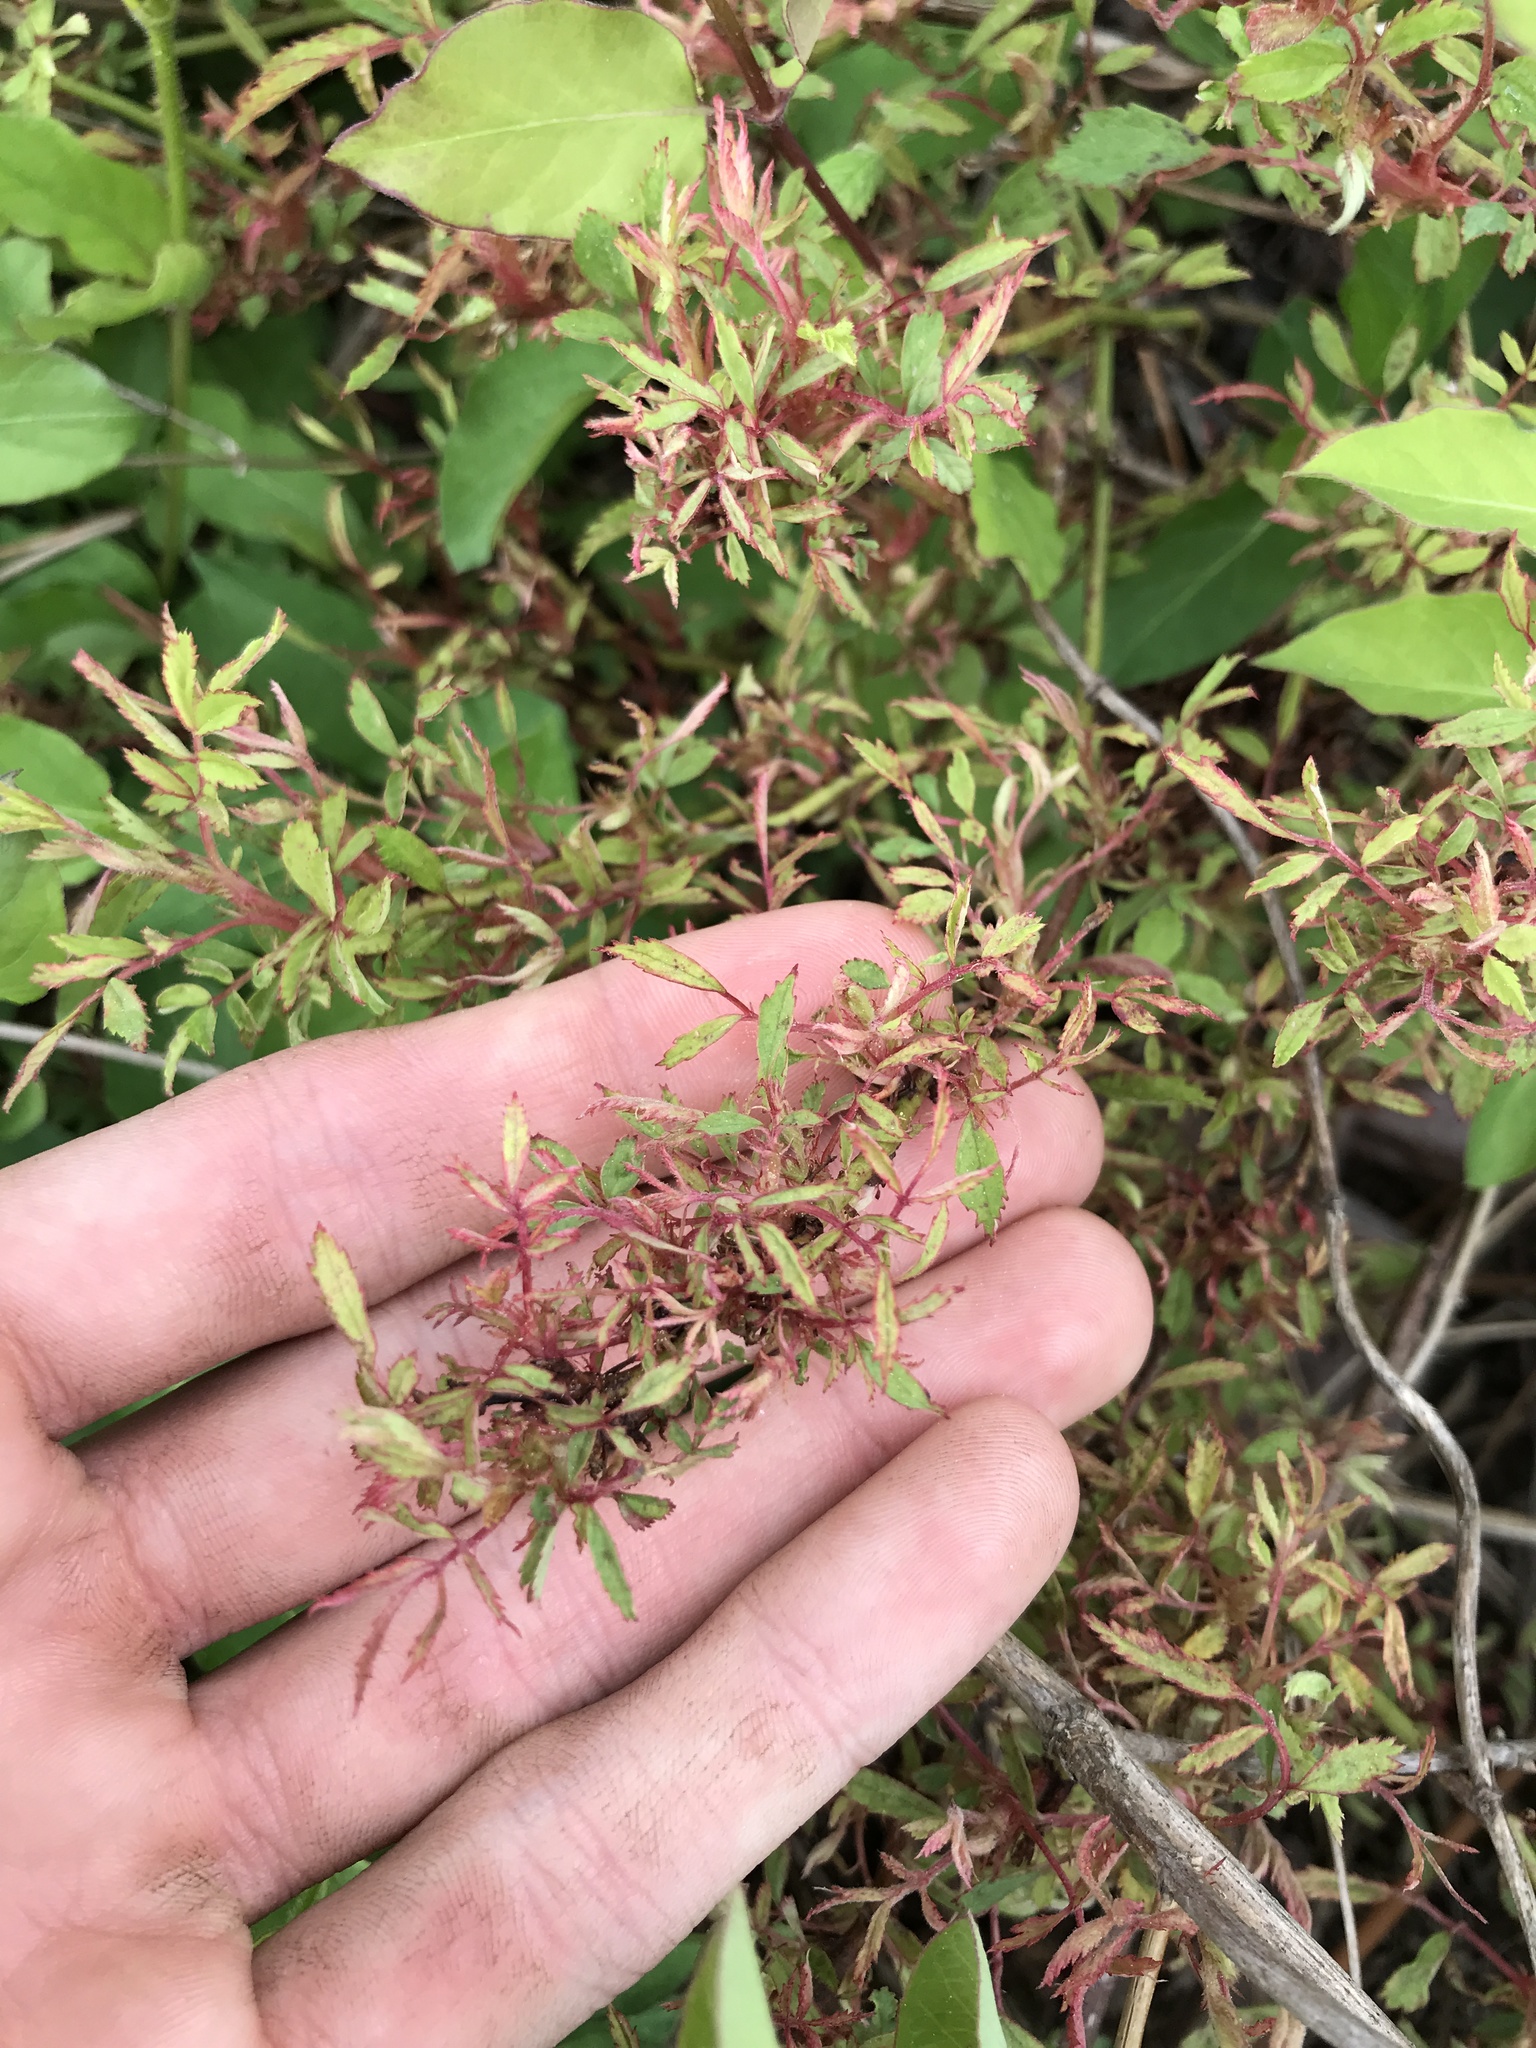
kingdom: Viruses
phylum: Negarnaviricota
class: Ellioviricetes
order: Bunyavirales
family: Fimoviridae
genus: Emaravirus
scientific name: Emaravirus rosae
